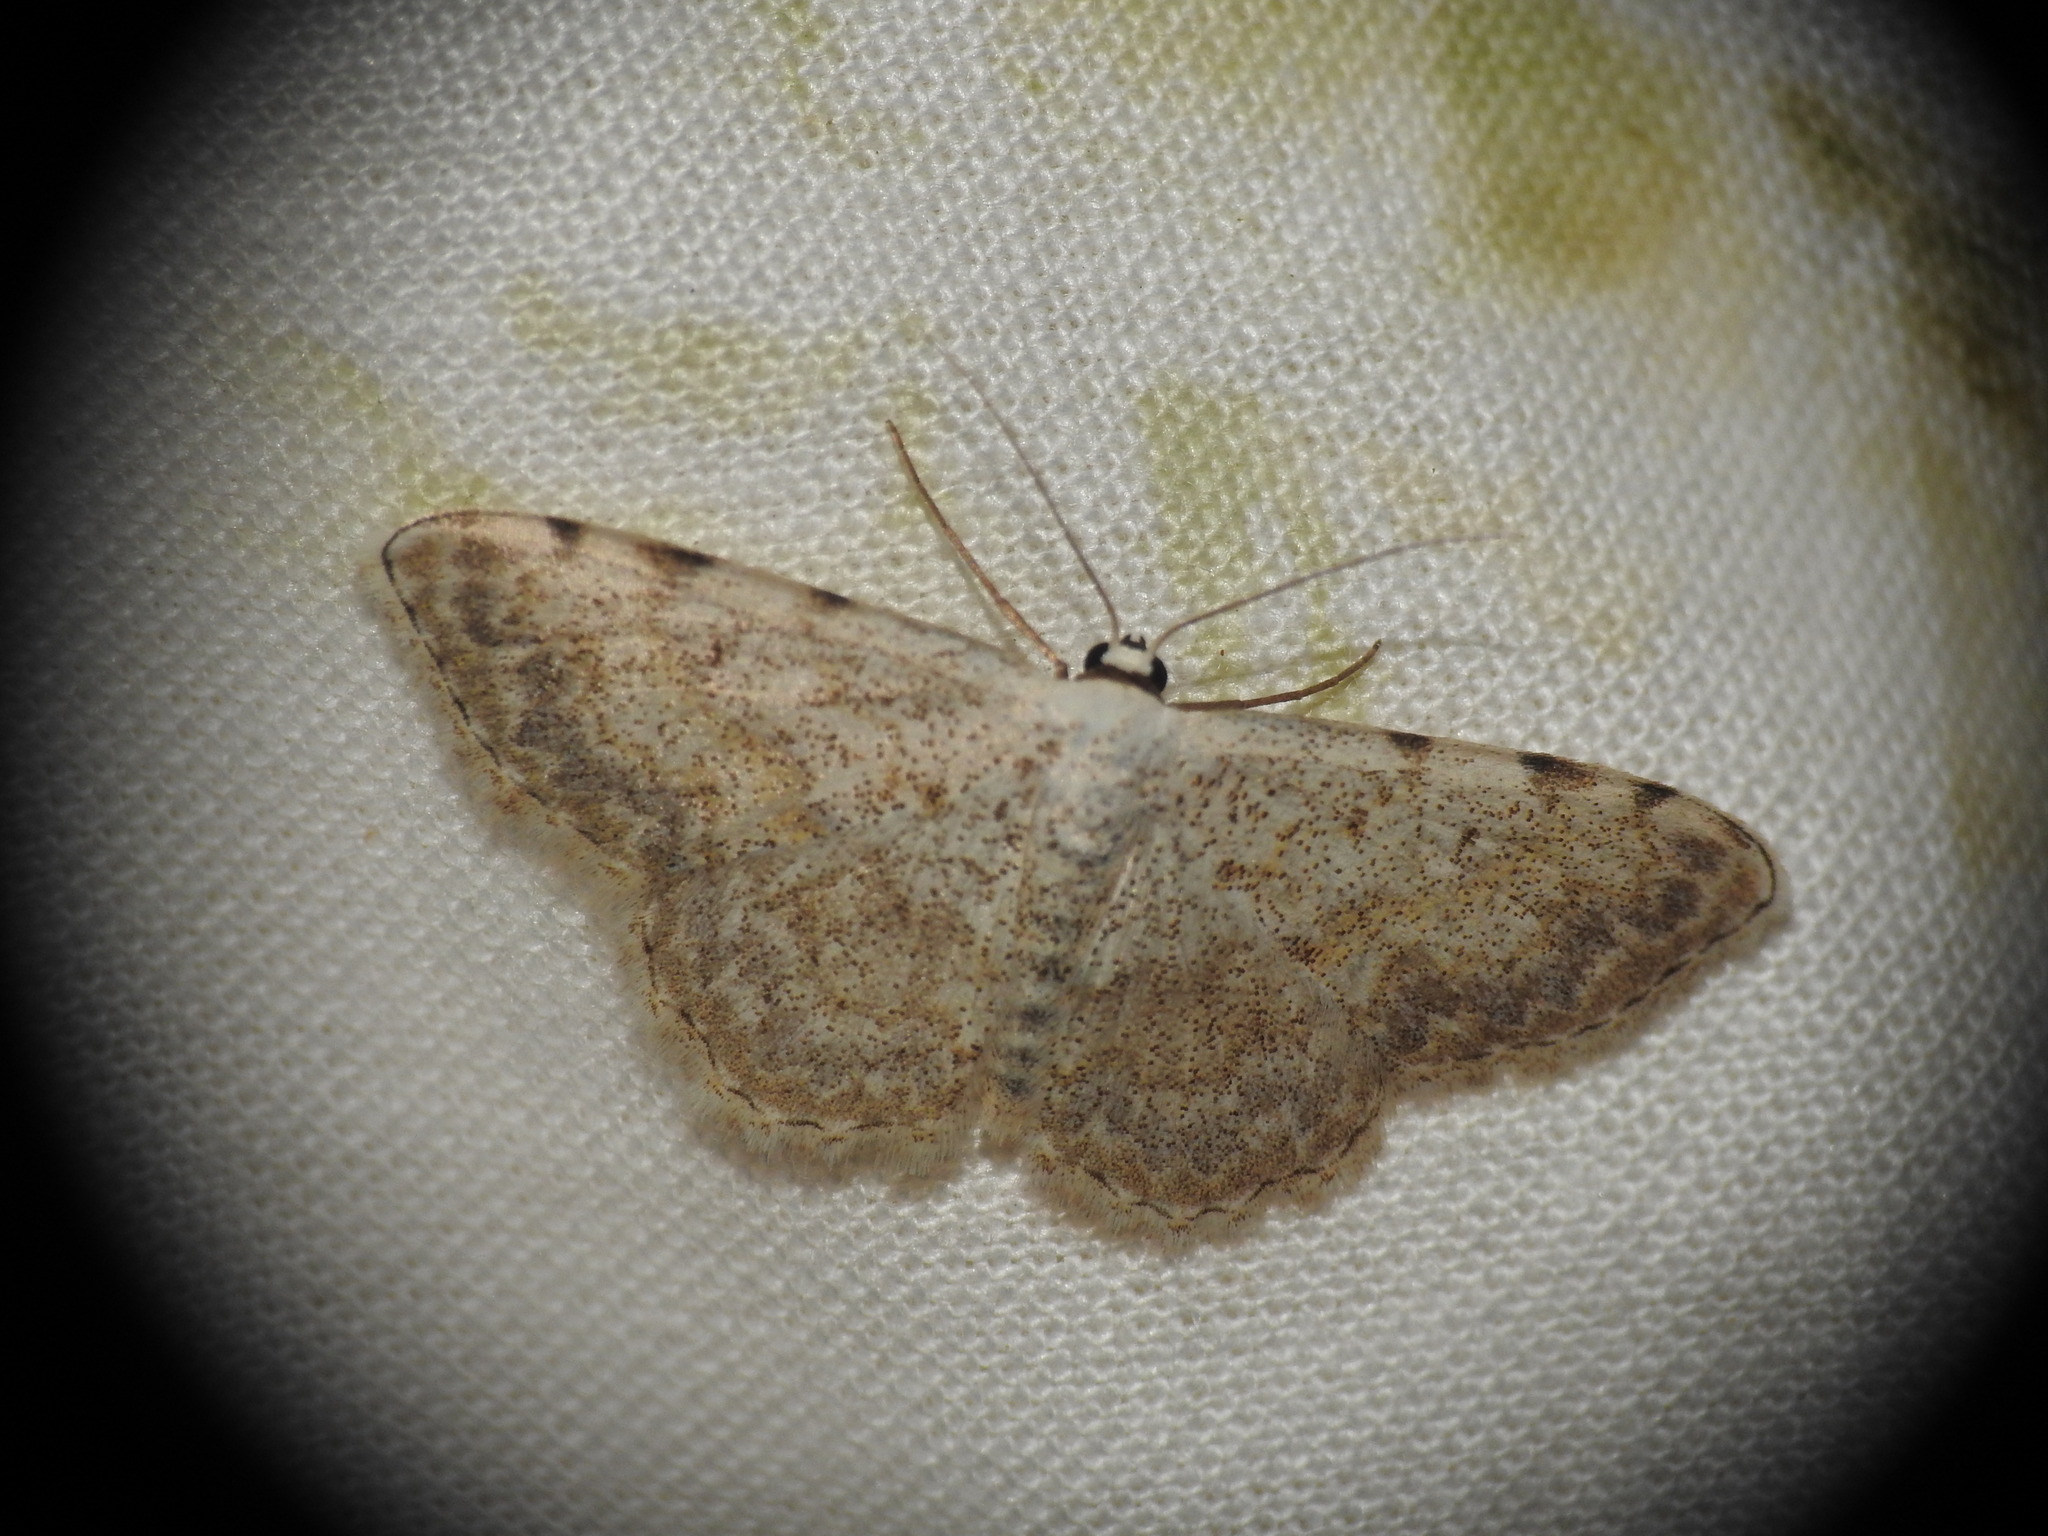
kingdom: Animalia
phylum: Arthropoda
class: Insecta
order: Lepidoptera
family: Geometridae
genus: Scopula
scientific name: Scopula submutata
